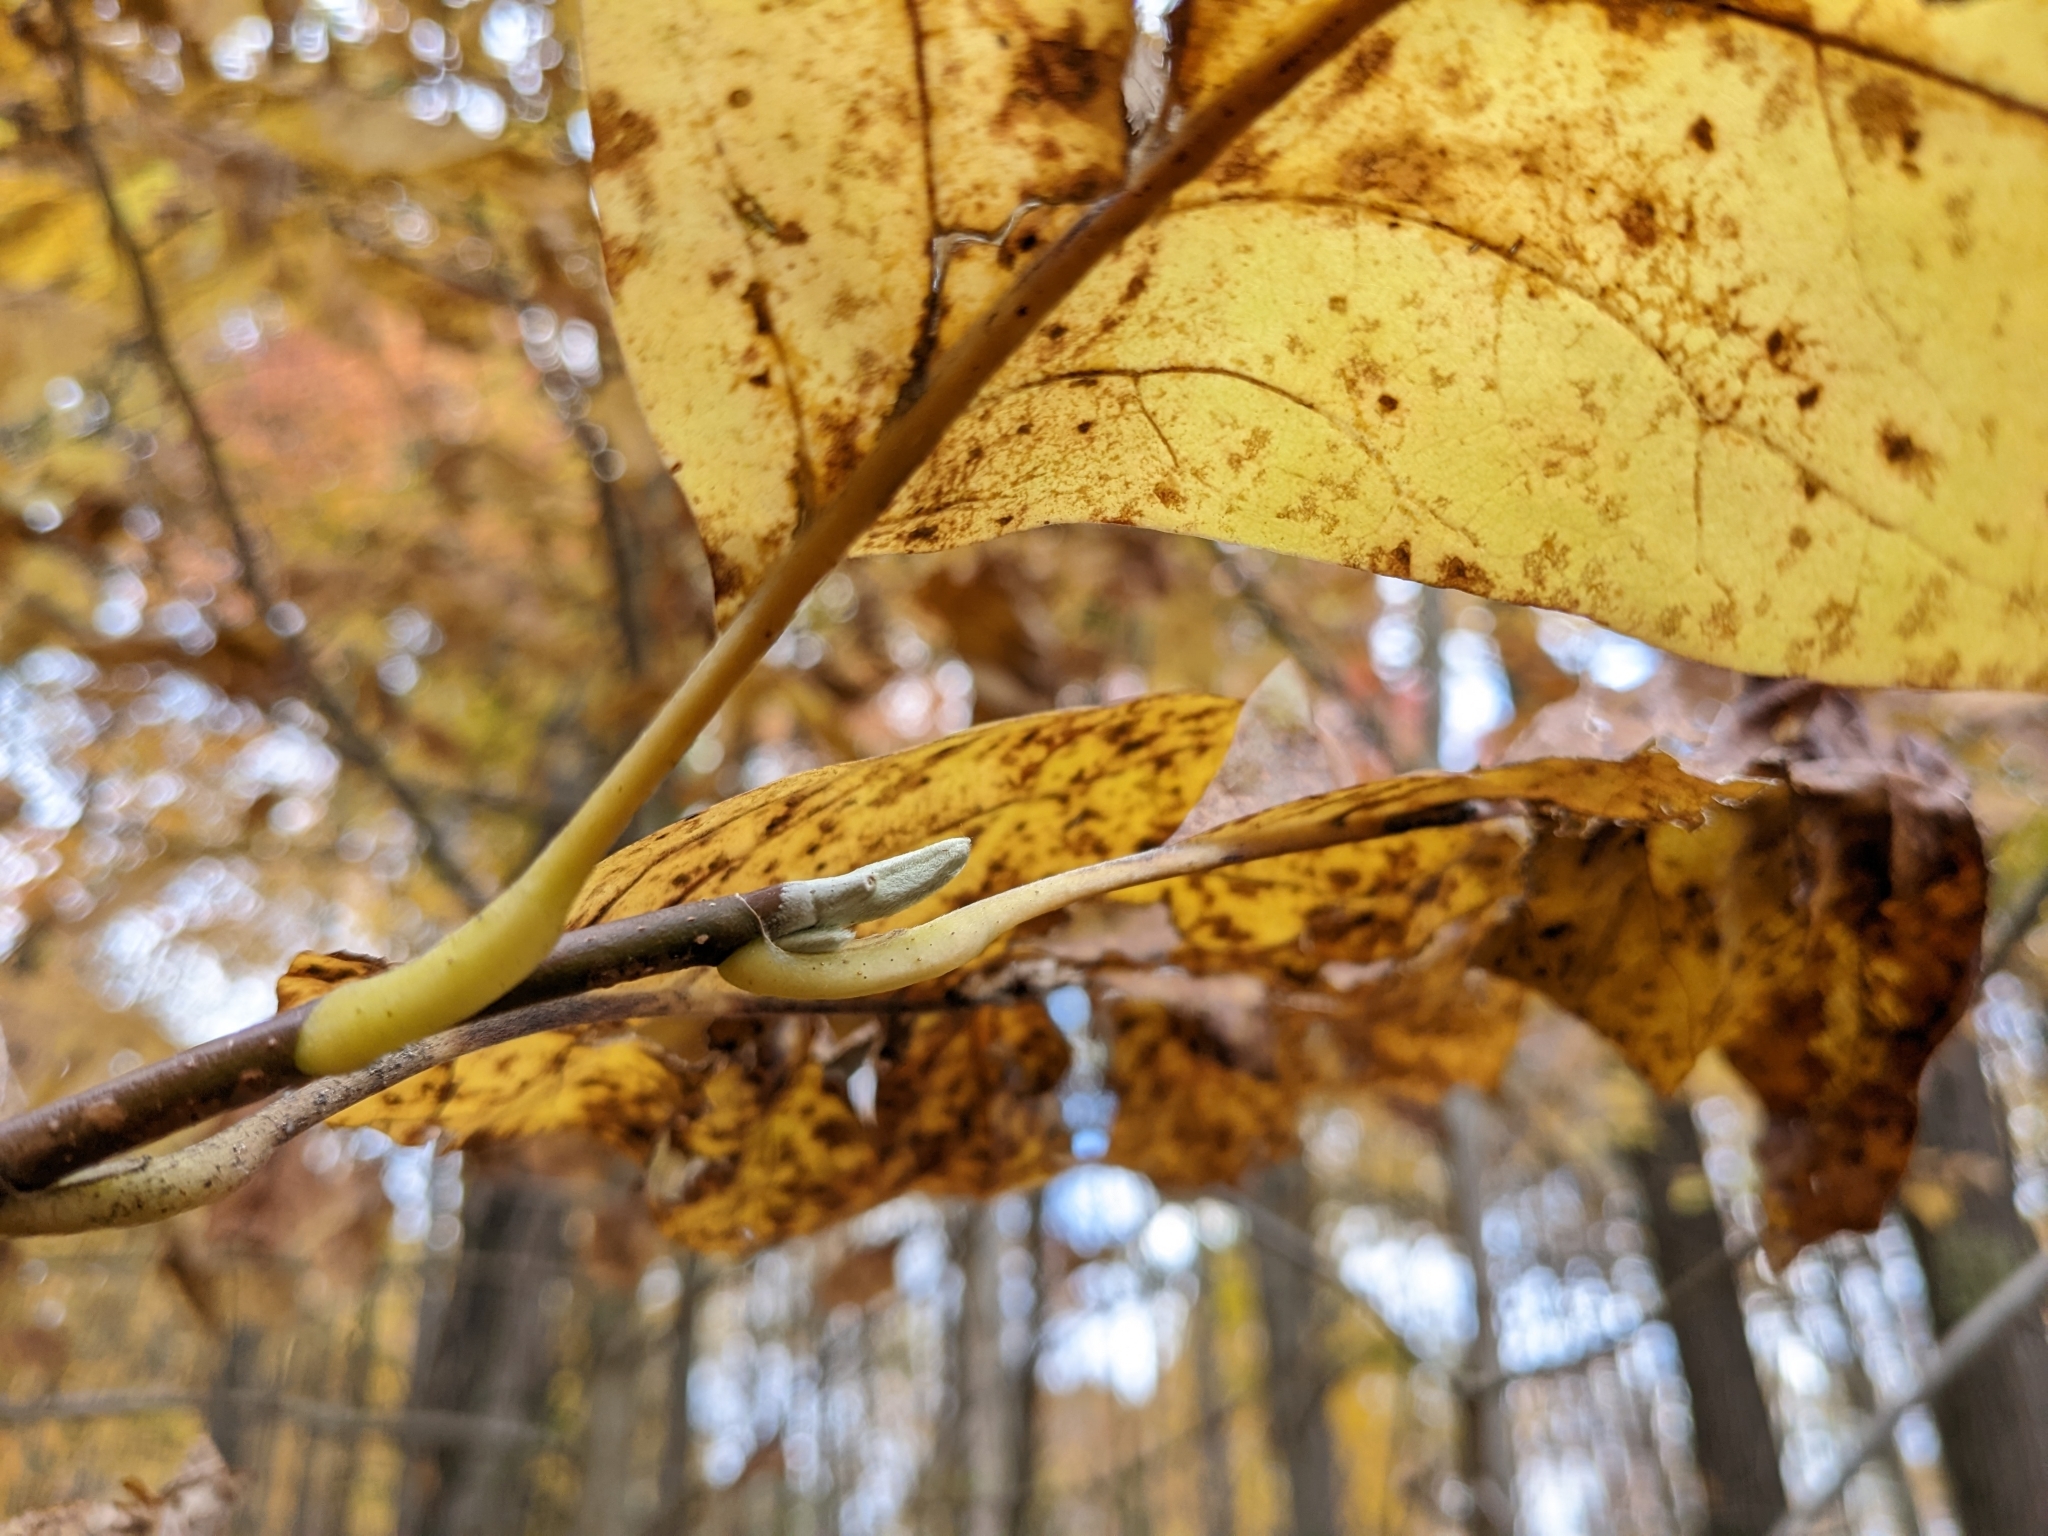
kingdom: Plantae
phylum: Tracheophyta
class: Magnoliopsida
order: Magnoliales
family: Magnoliaceae
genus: Magnolia
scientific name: Magnolia acuminata
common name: Cucumber magnolia
